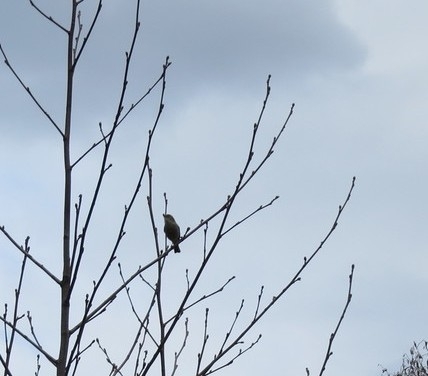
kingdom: Animalia
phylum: Chordata
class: Aves
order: Passeriformes
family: Phylloscopidae
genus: Phylloscopus
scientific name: Phylloscopus collybita
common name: Common chiffchaff
